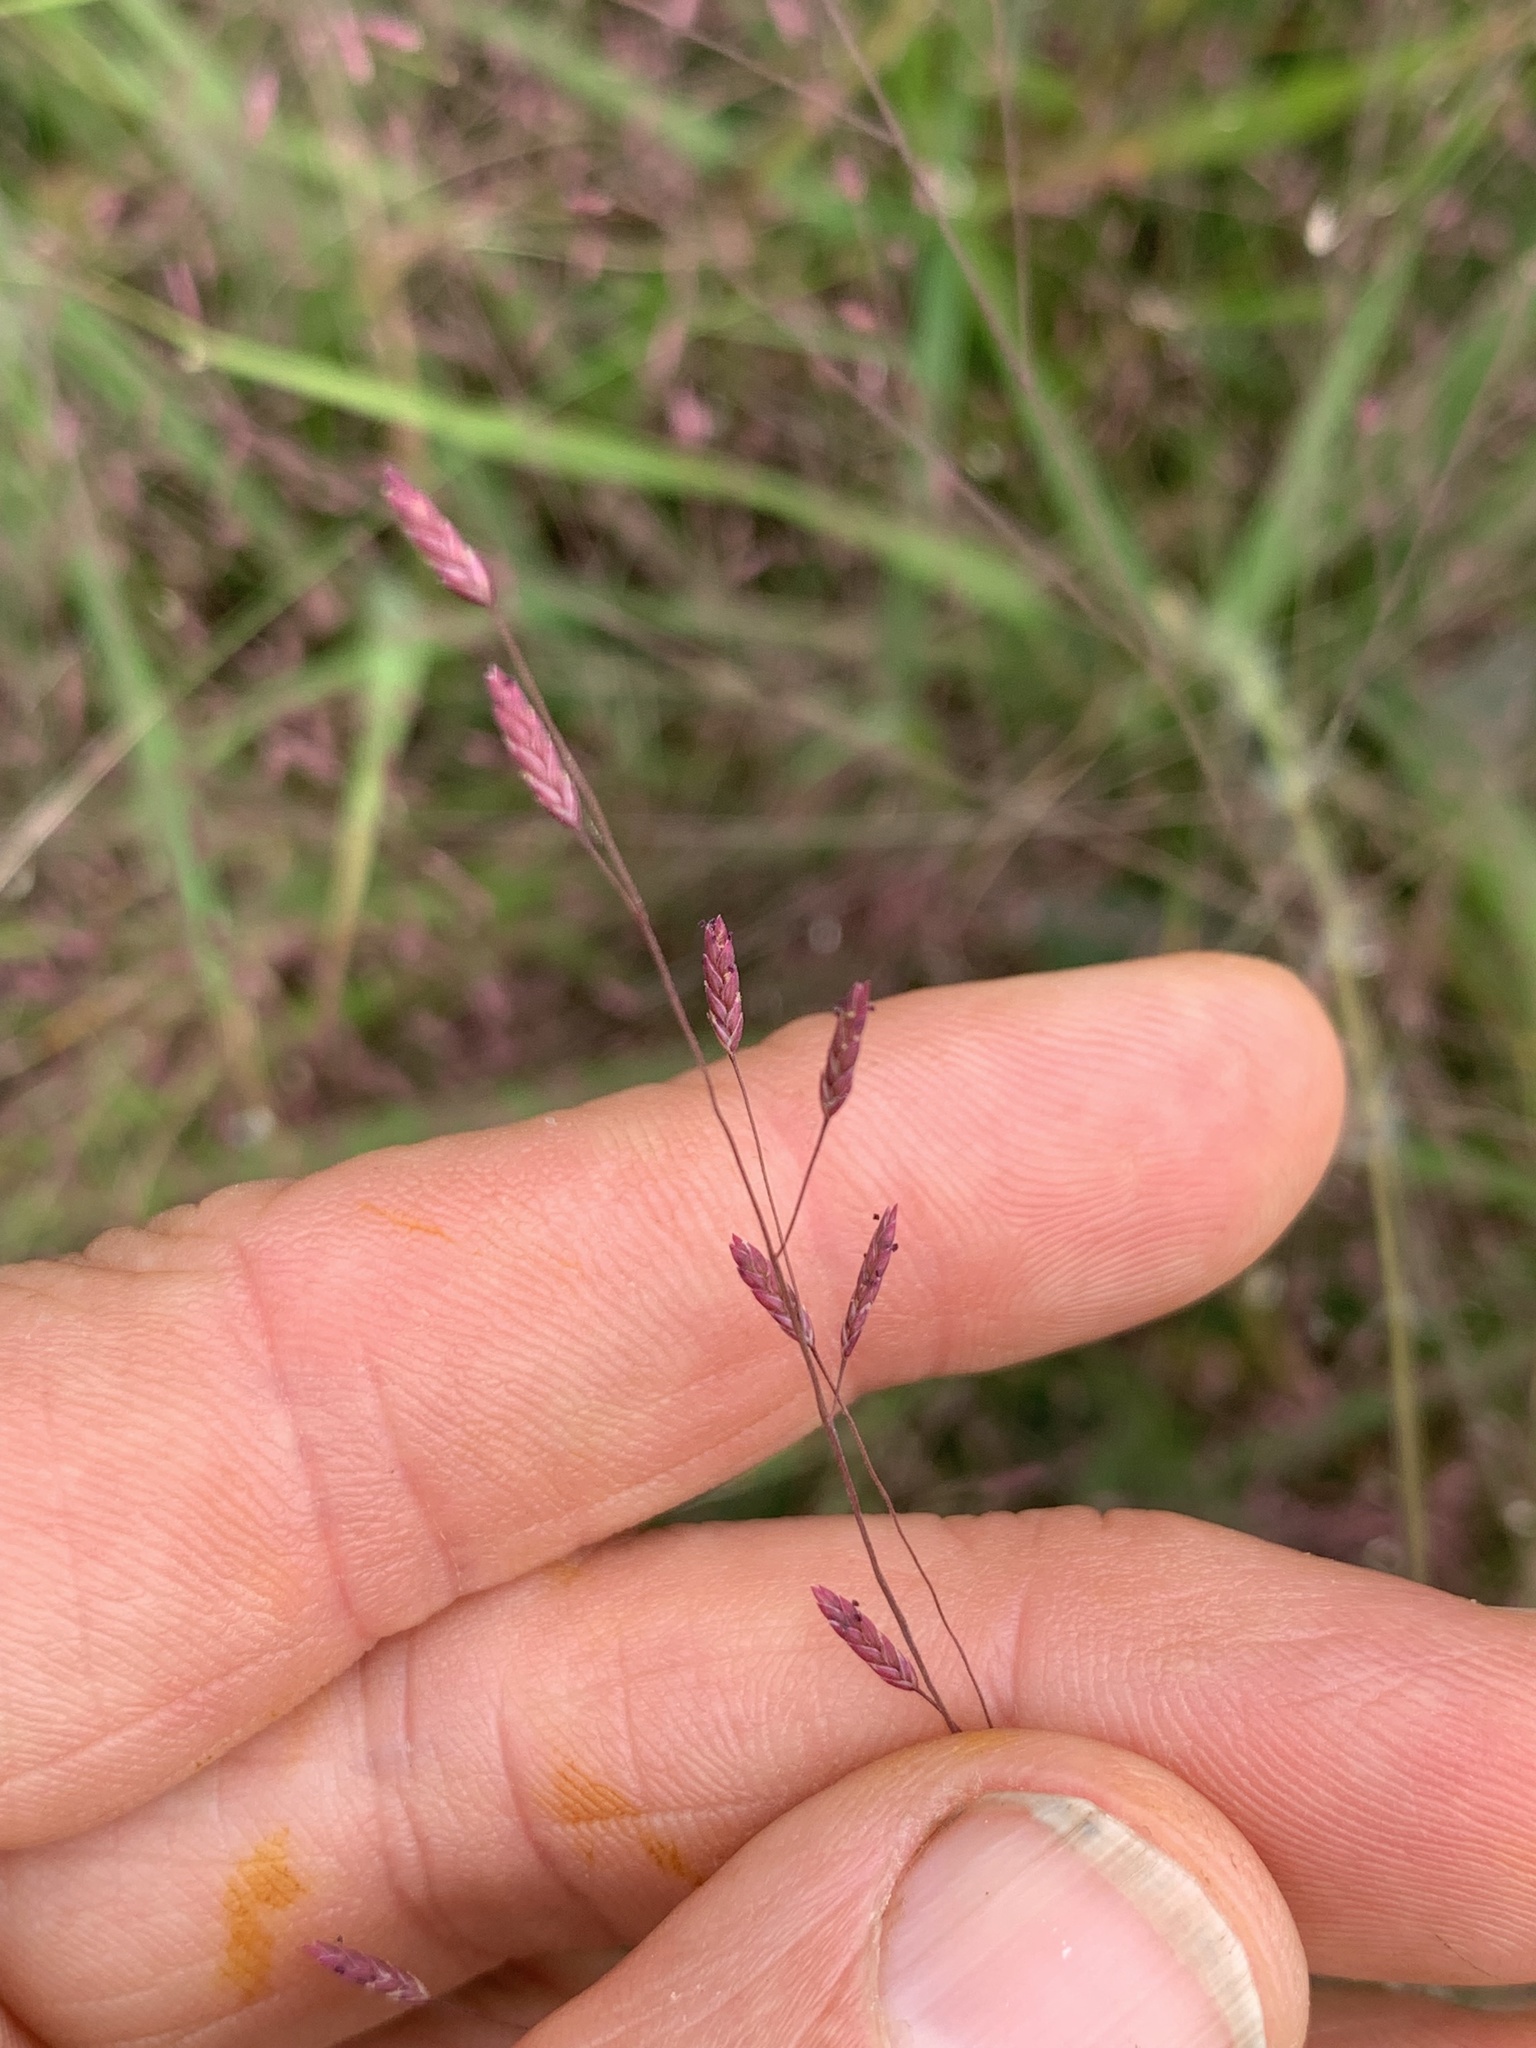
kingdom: Plantae
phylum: Tracheophyta
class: Liliopsida
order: Poales
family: Poaceae
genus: Eragrostis
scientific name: Eragrostis spectabilis
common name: Petticoat-climber
